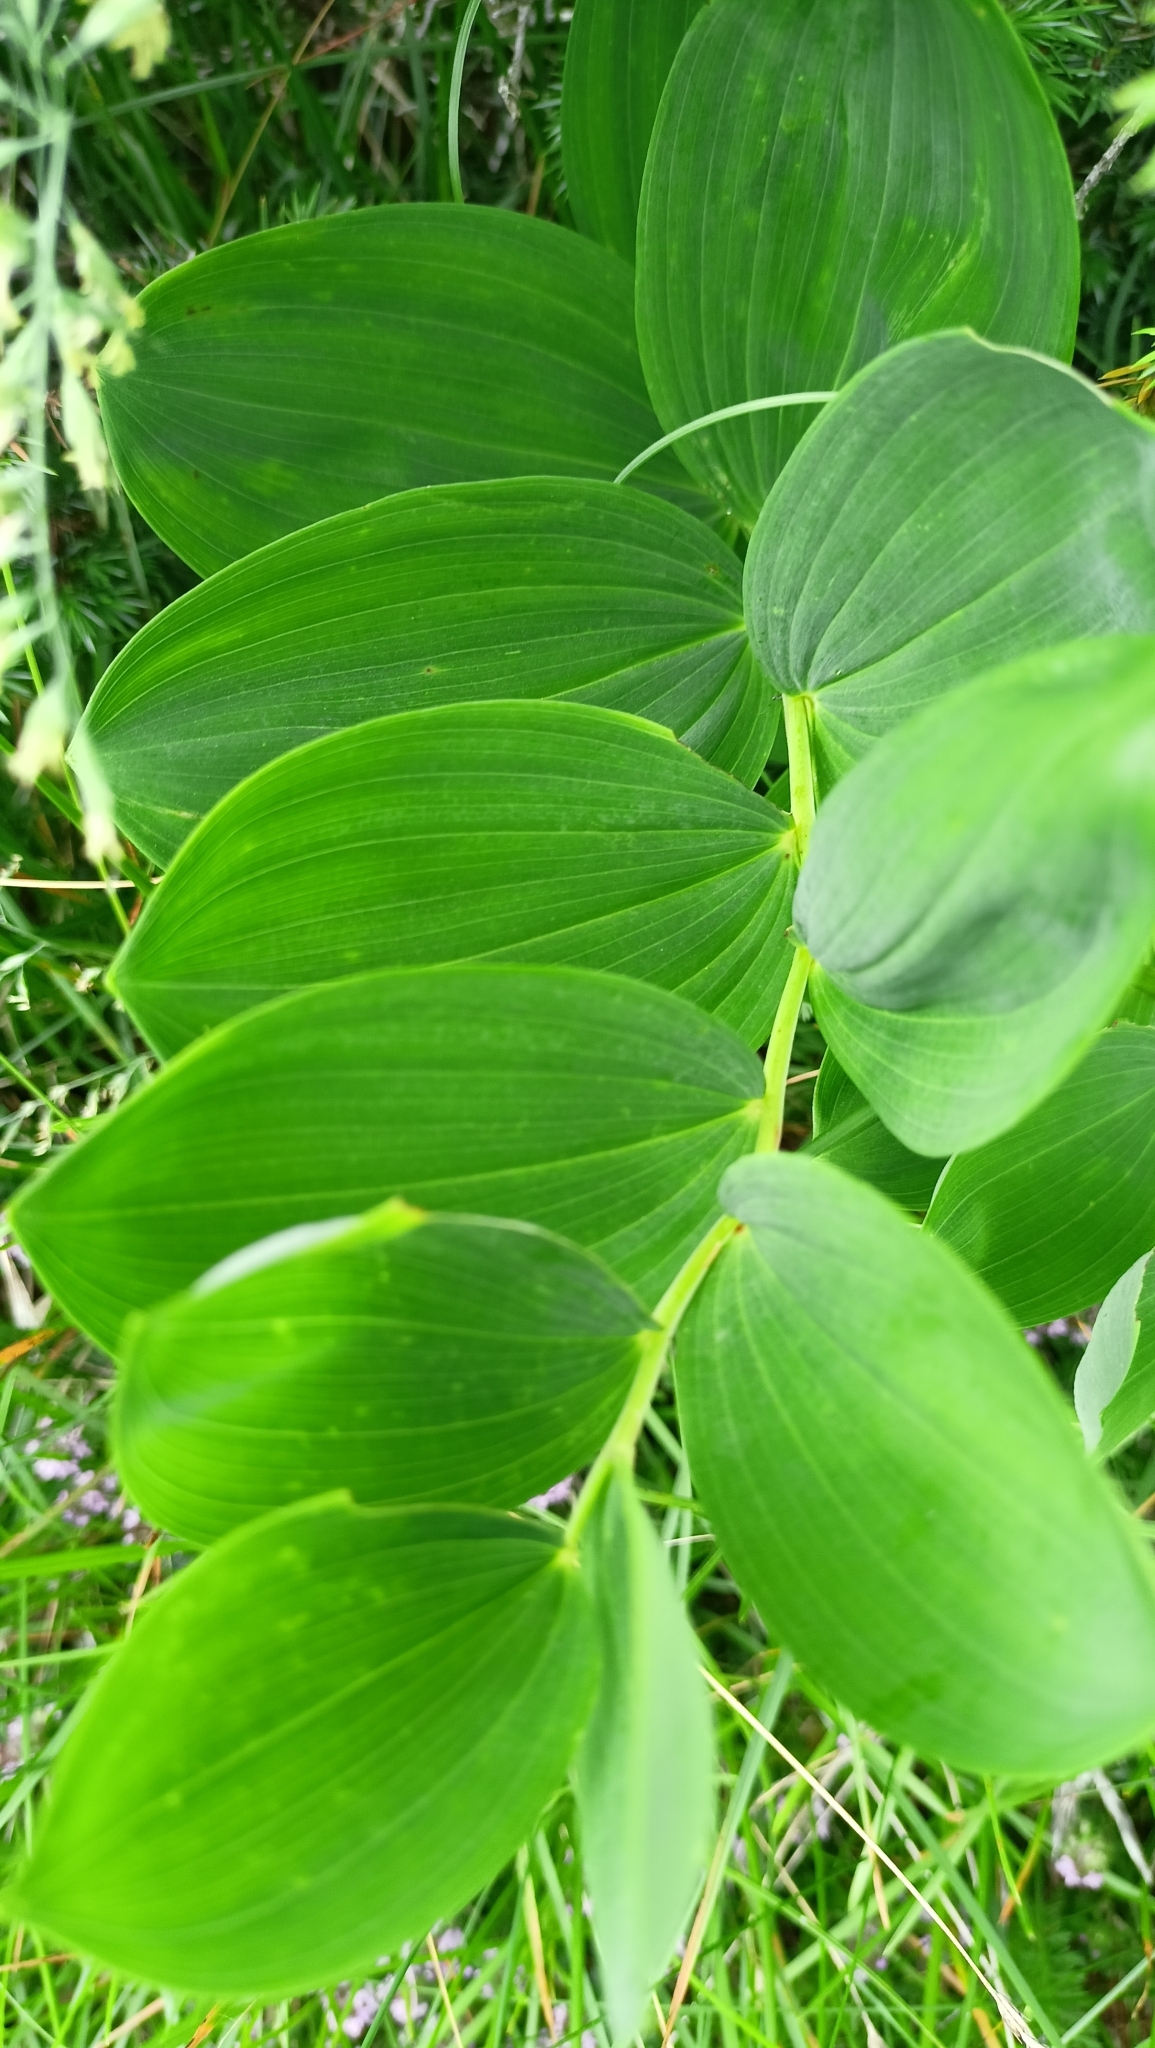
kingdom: Plantae
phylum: Tracheophyta
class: Liliopsida
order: Asparagales
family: Asparagaceae
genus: Polygonatum
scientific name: Polygonatum odoratum
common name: Angular solomon's-seal
